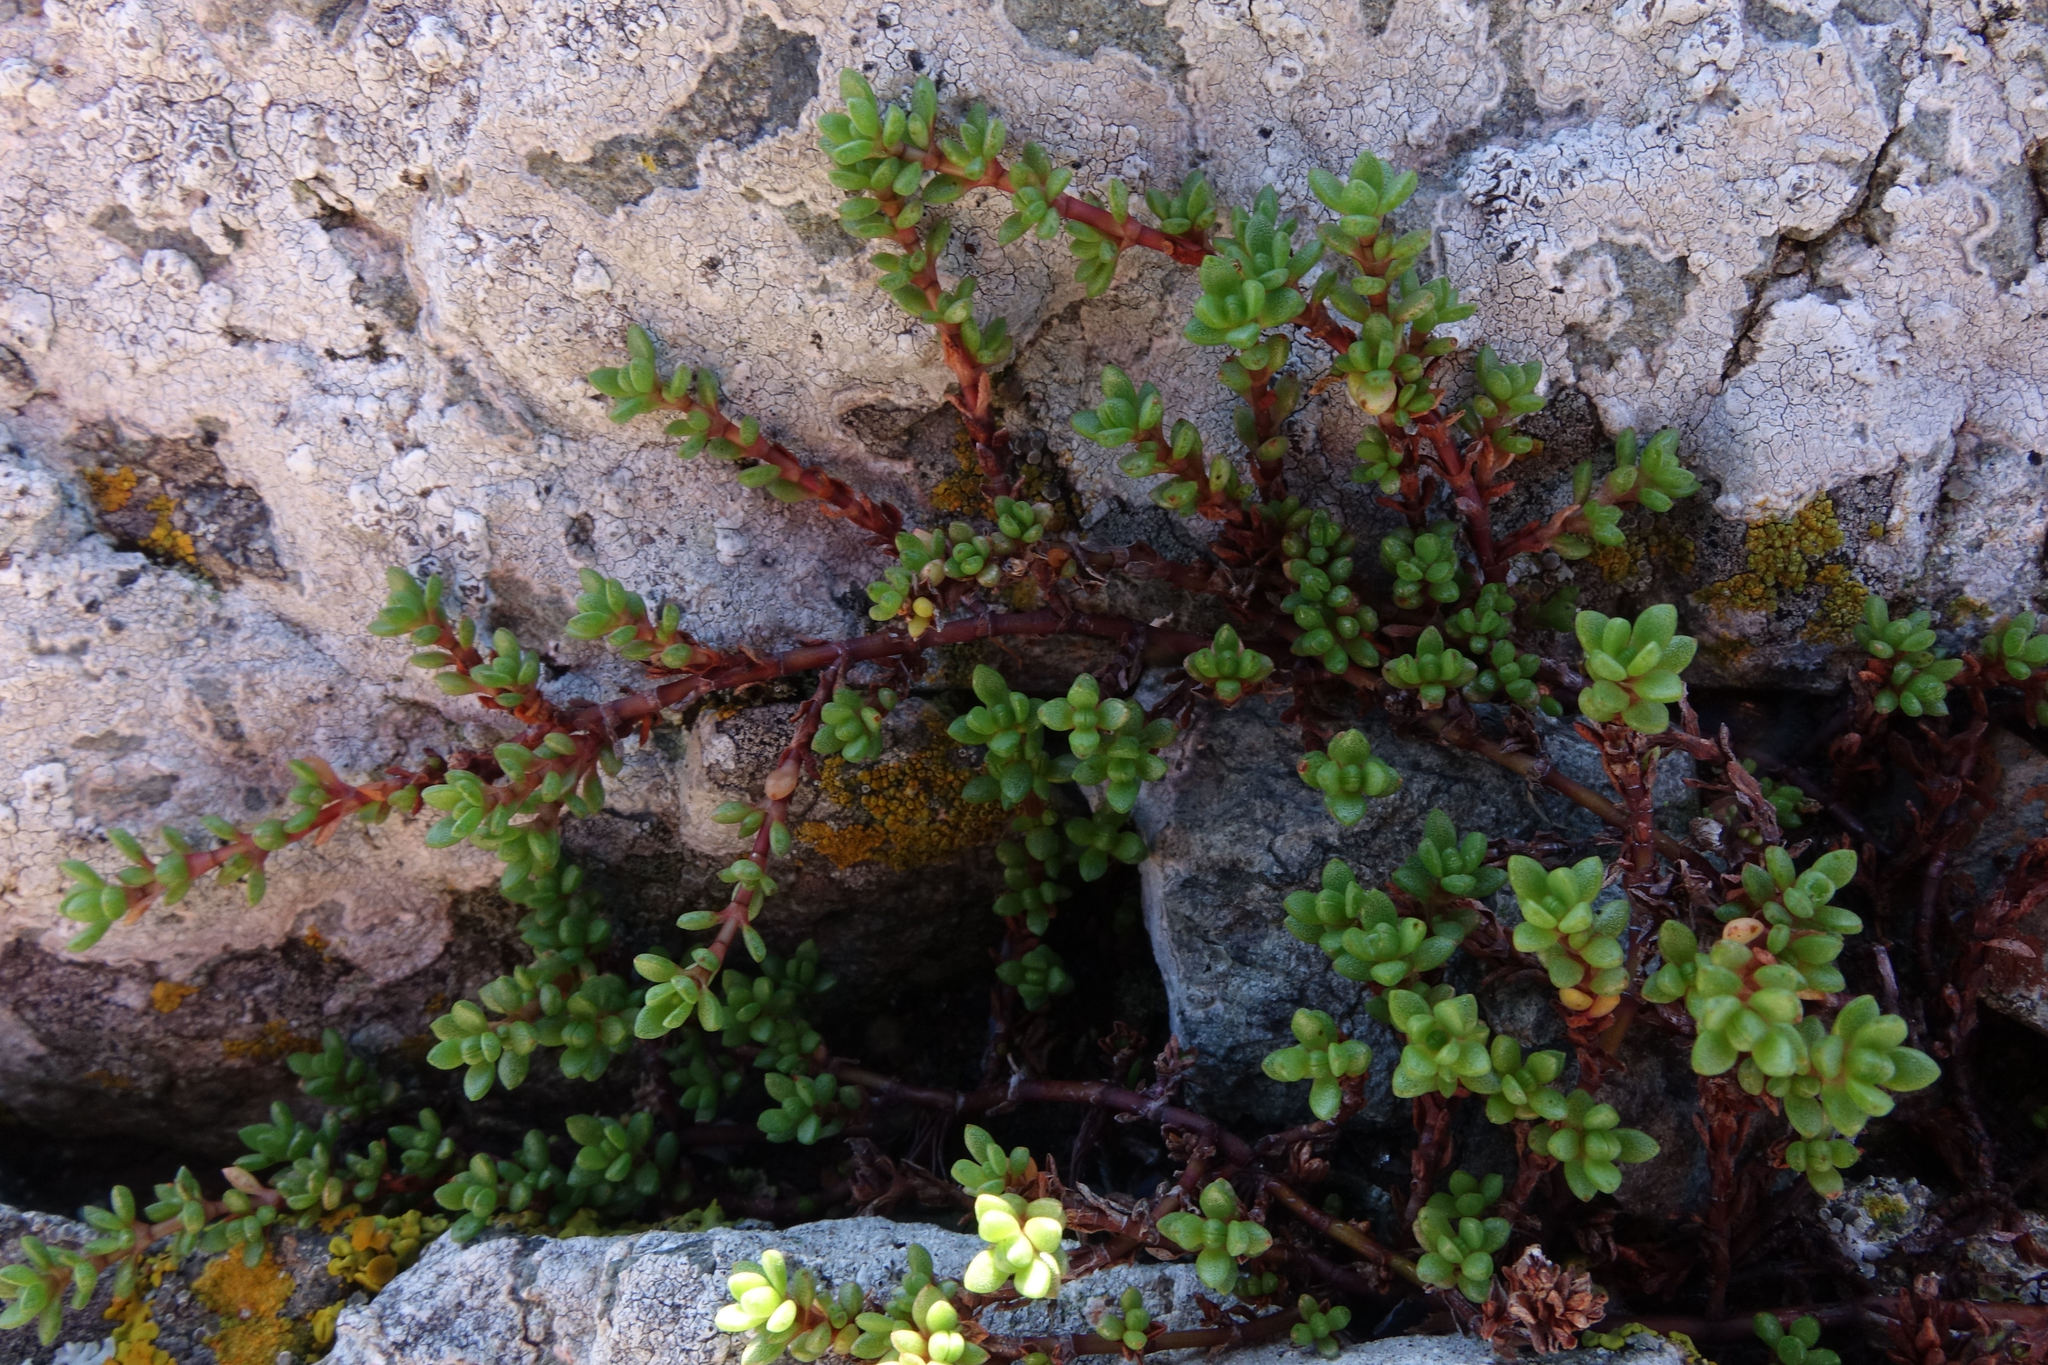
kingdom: Plantae
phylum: Tracheophyta
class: Magnoliopsida
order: Saxifragales
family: Crassulaceae
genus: Crassula
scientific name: Crassula moschata
